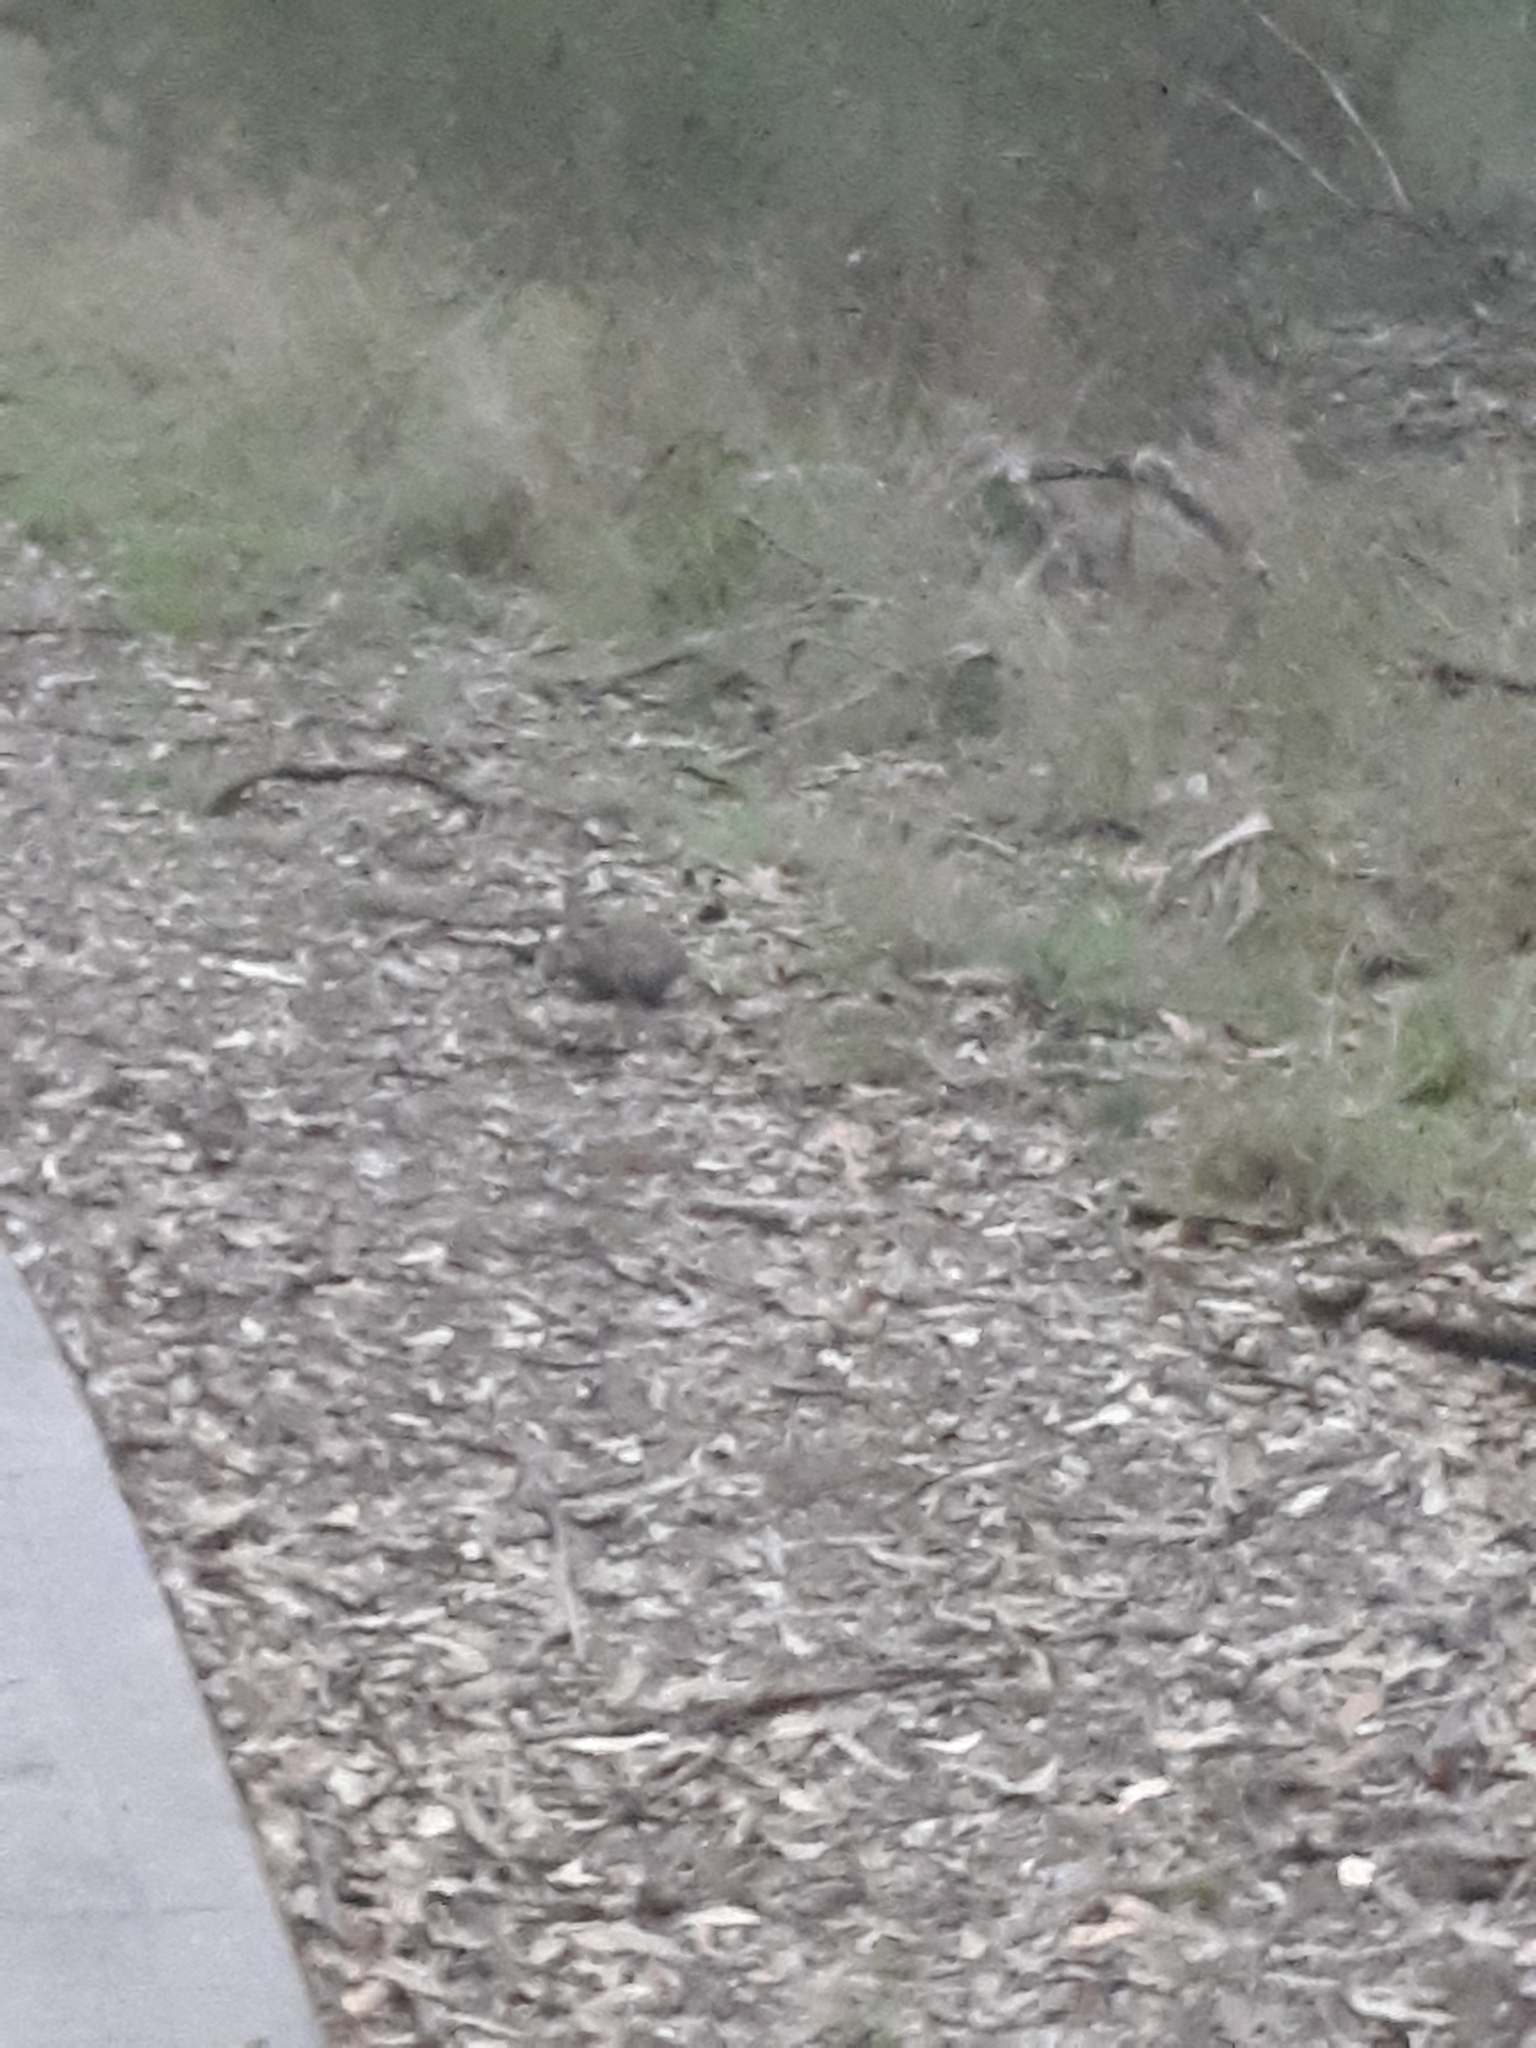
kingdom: Animalia
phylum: Chordata
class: Mammalia
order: Lagomorpha
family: Leporidae
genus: Oryctolagus
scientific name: Oryctolagus cuniculus
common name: European rabbit
